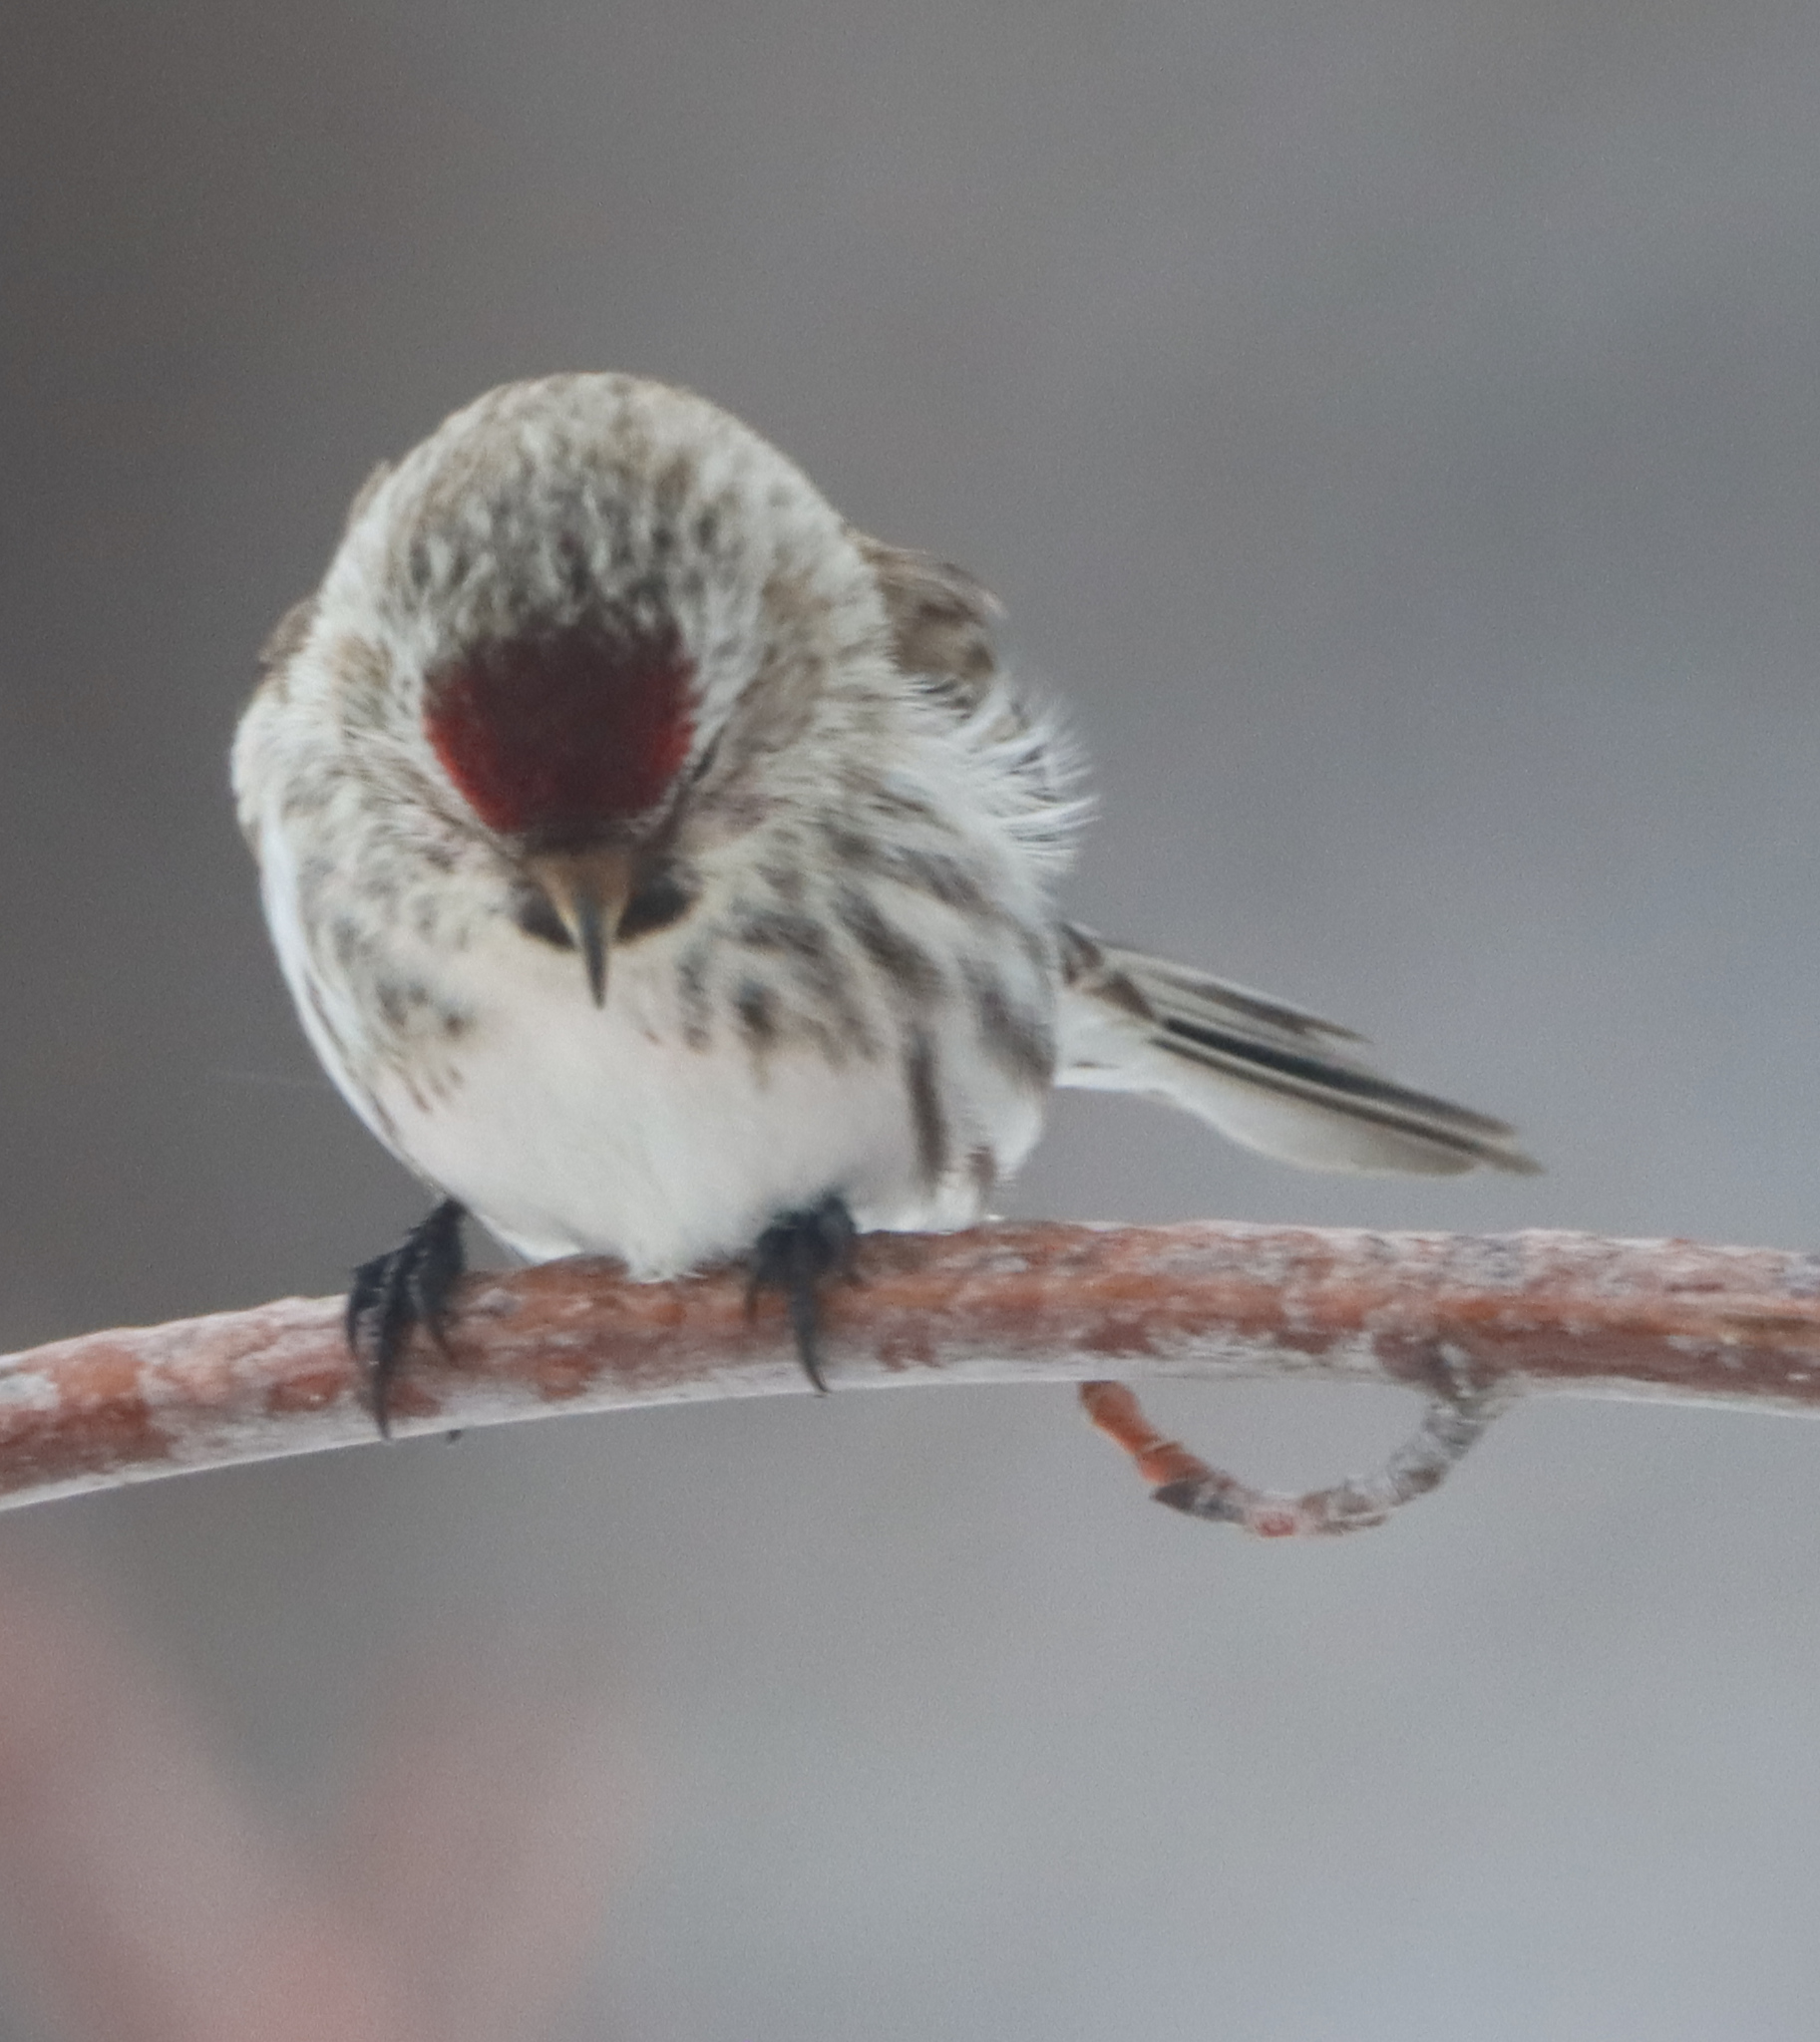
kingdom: Animalia
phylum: Chordata
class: Aves
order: Passeriformes
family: Fringillidae
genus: Acanthis
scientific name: Acanthis flammea
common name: Common redpoll
